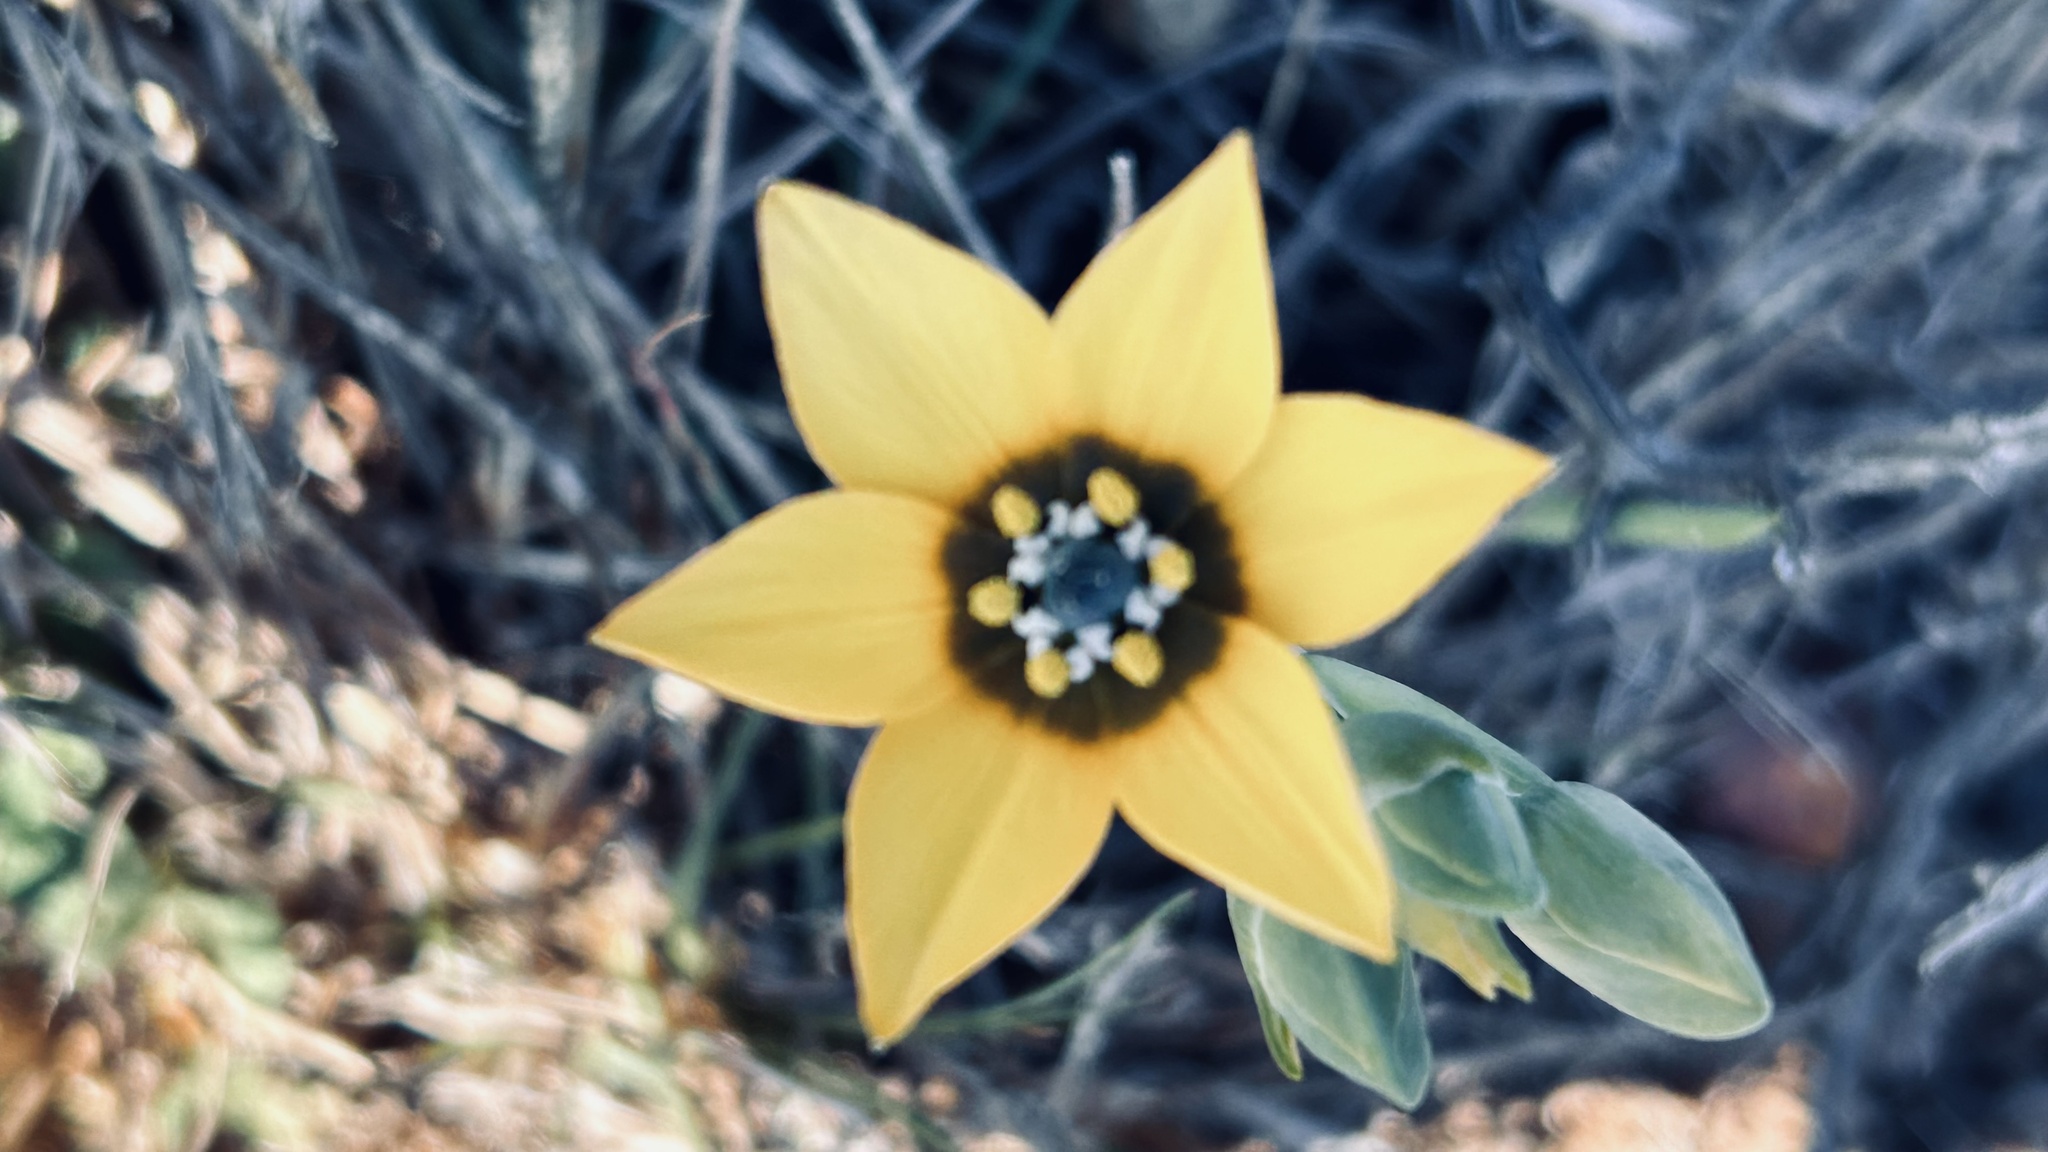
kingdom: Plantae
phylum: Tracheophyta
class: Liliopsida
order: Asparagales
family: Asparagaceae
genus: Ornithogalum
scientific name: Ornithogalum dubium
